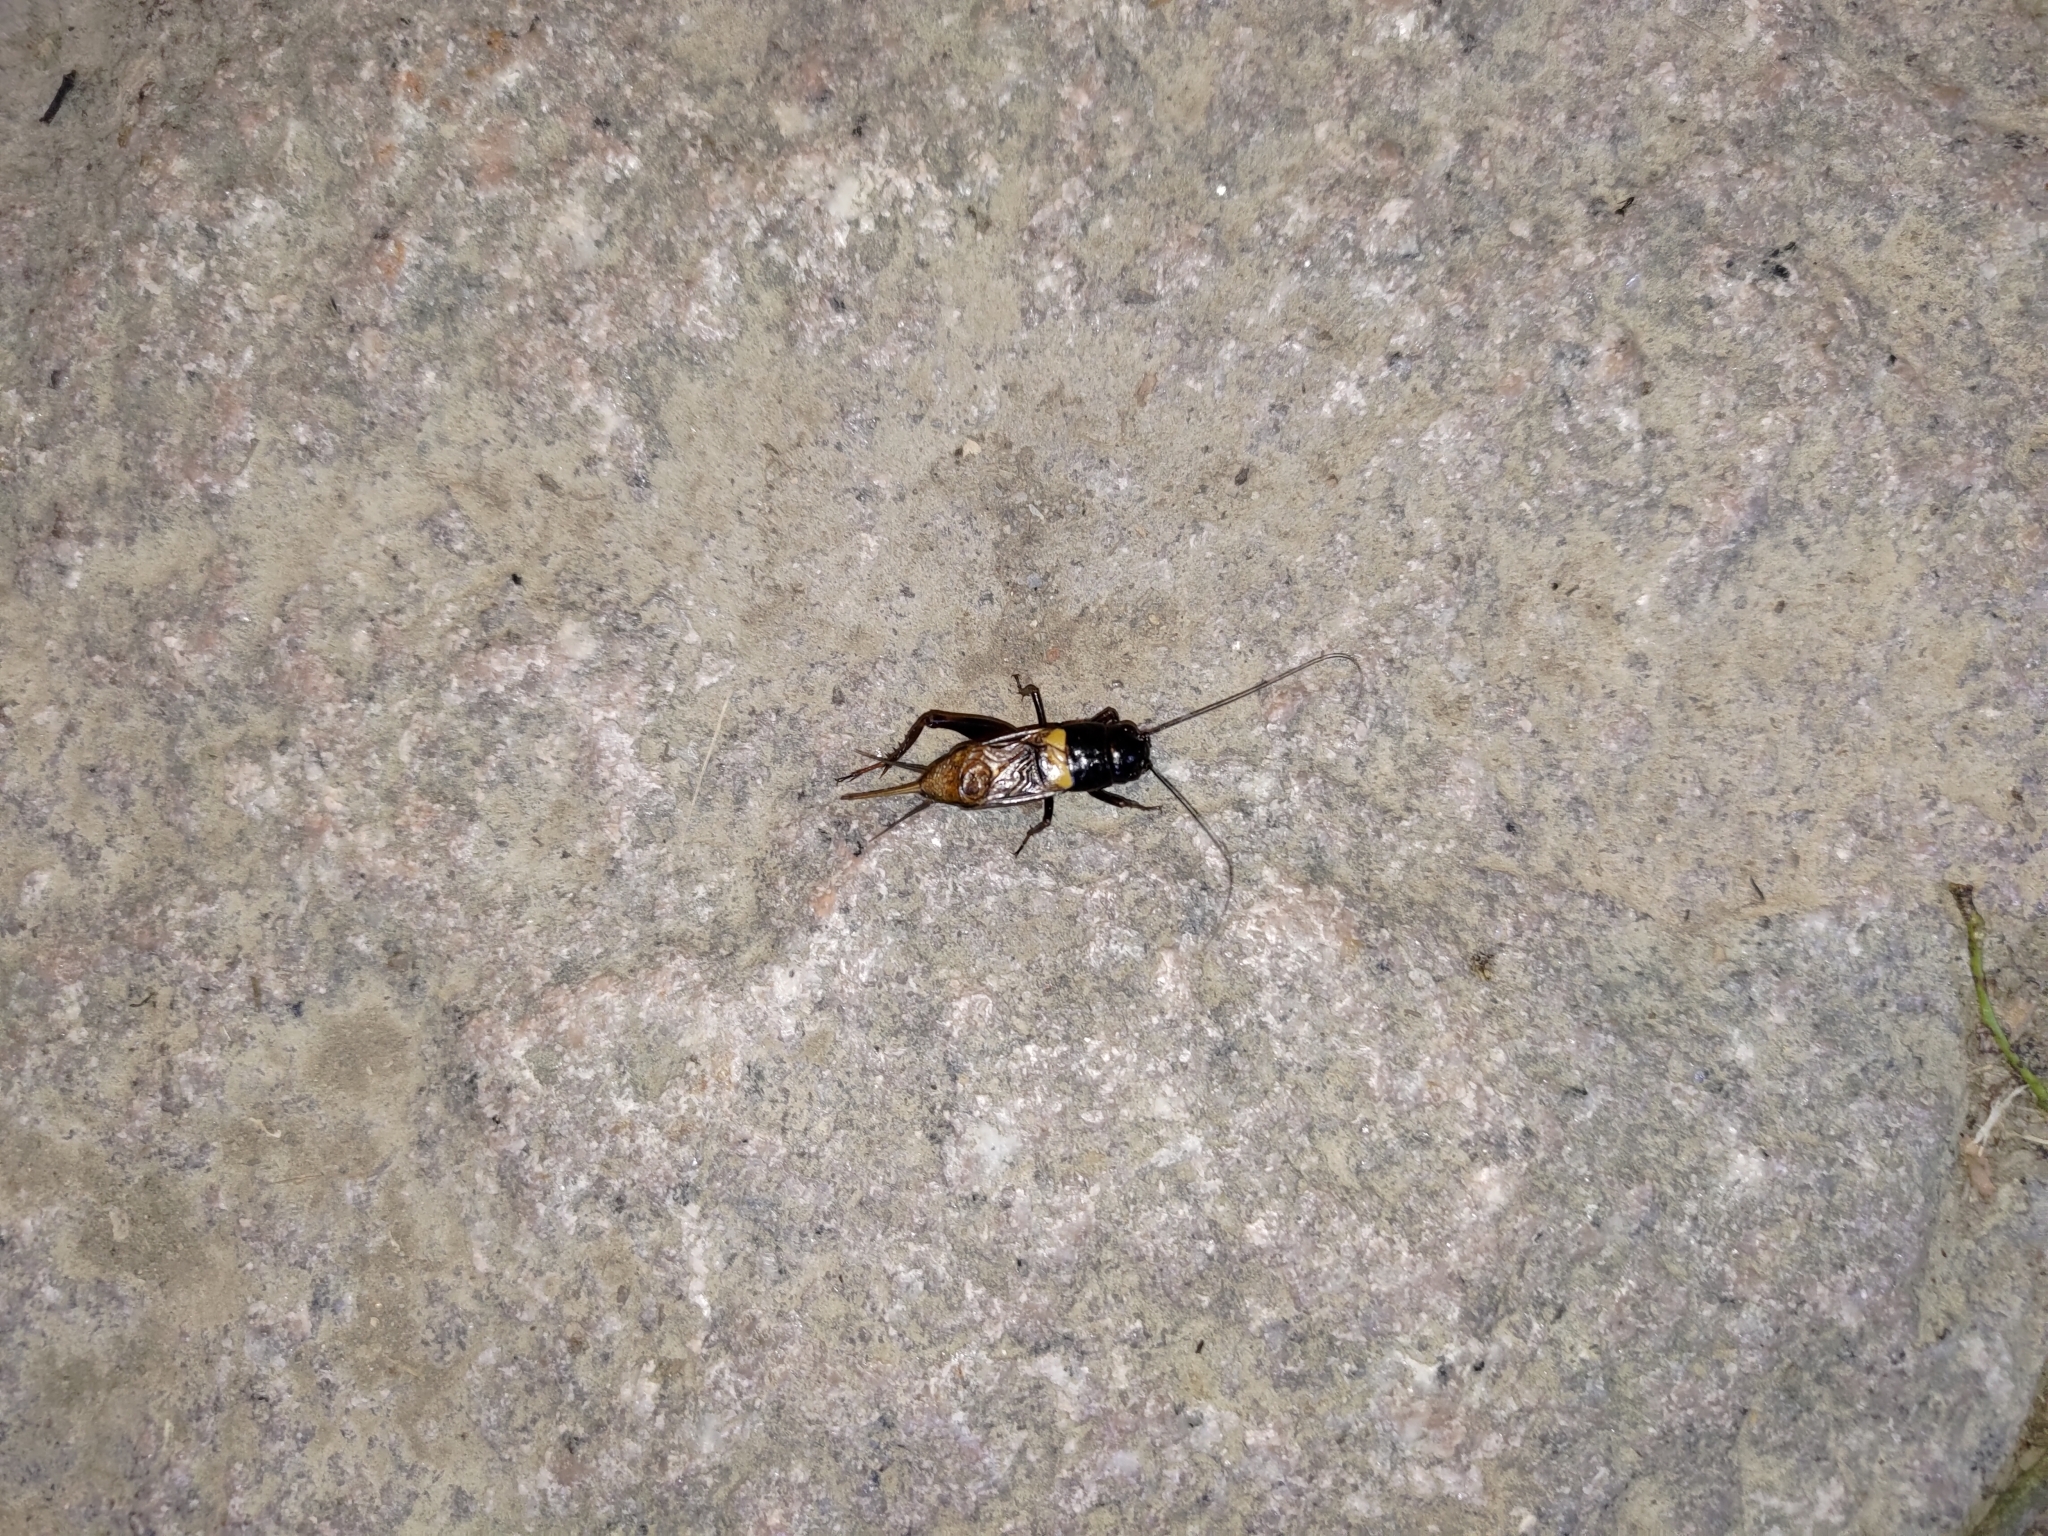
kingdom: Animalia
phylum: Arthropoda
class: Insecta
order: Orthoptera
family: Gryllidae
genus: Gryllus
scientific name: Gryllus bimaculatus
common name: Two-spotted cricket
